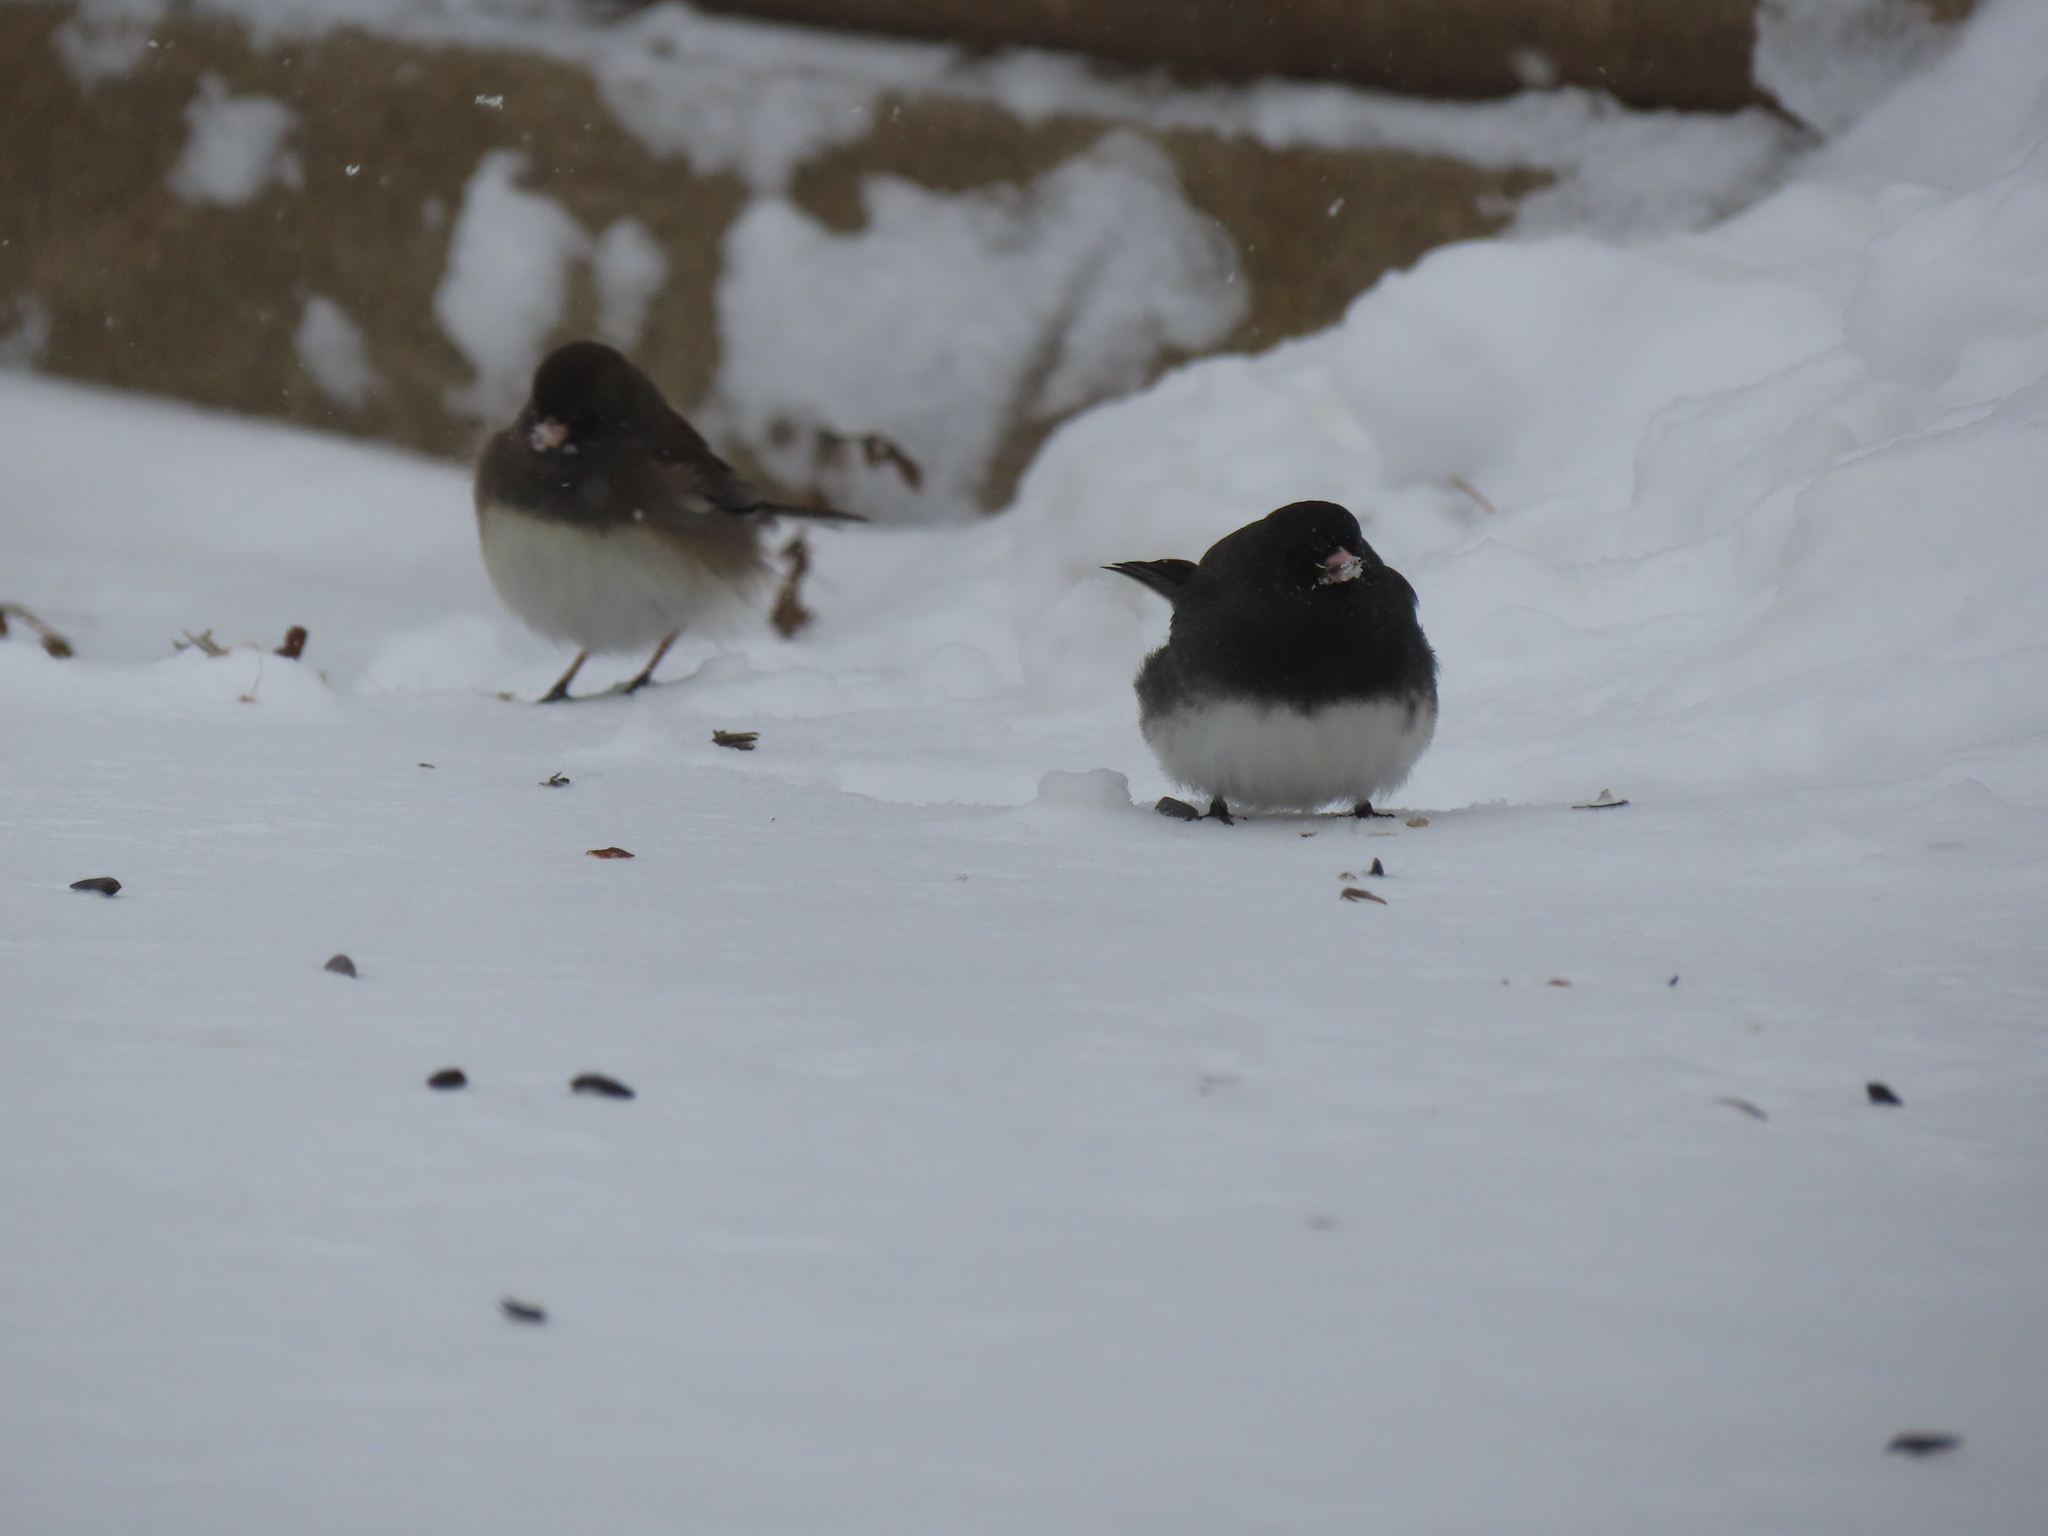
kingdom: Animalia
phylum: Chordata
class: Aves
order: Passeriformes
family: Passerellidae
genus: Junco
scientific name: Junco hyemalis
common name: Dark-eyed junco
